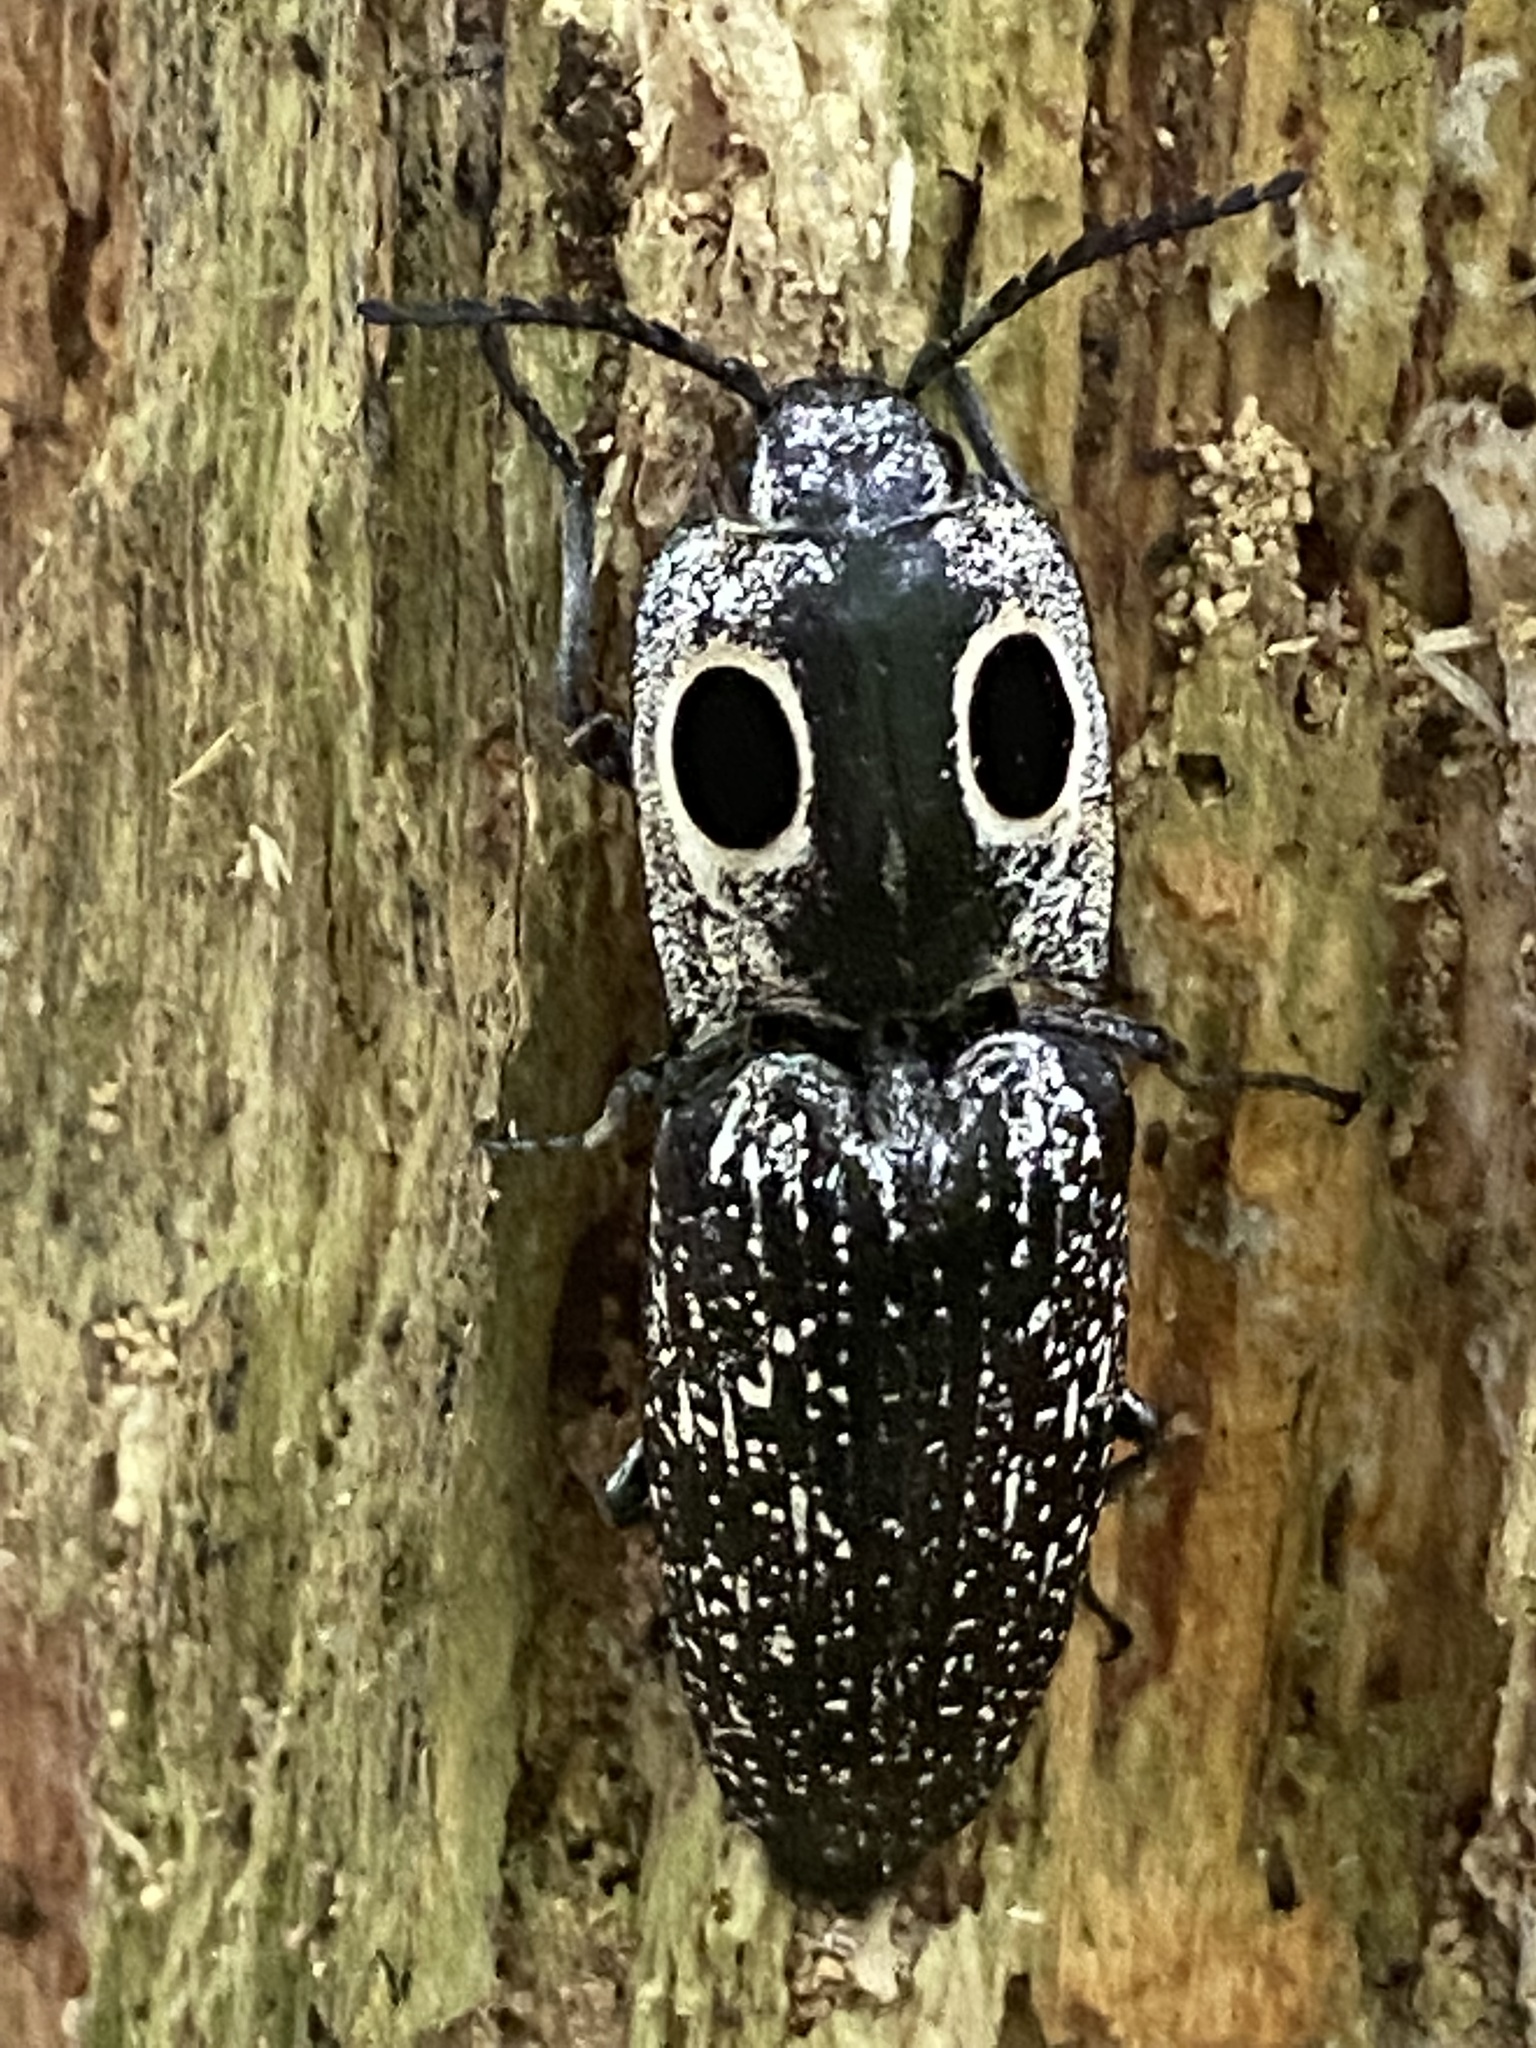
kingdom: Animalia
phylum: Arthropoda
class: Insecta
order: Coleoptera
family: Elateridae
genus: Alaus
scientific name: Alaus oculatus
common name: Eastern eyed click beetle
